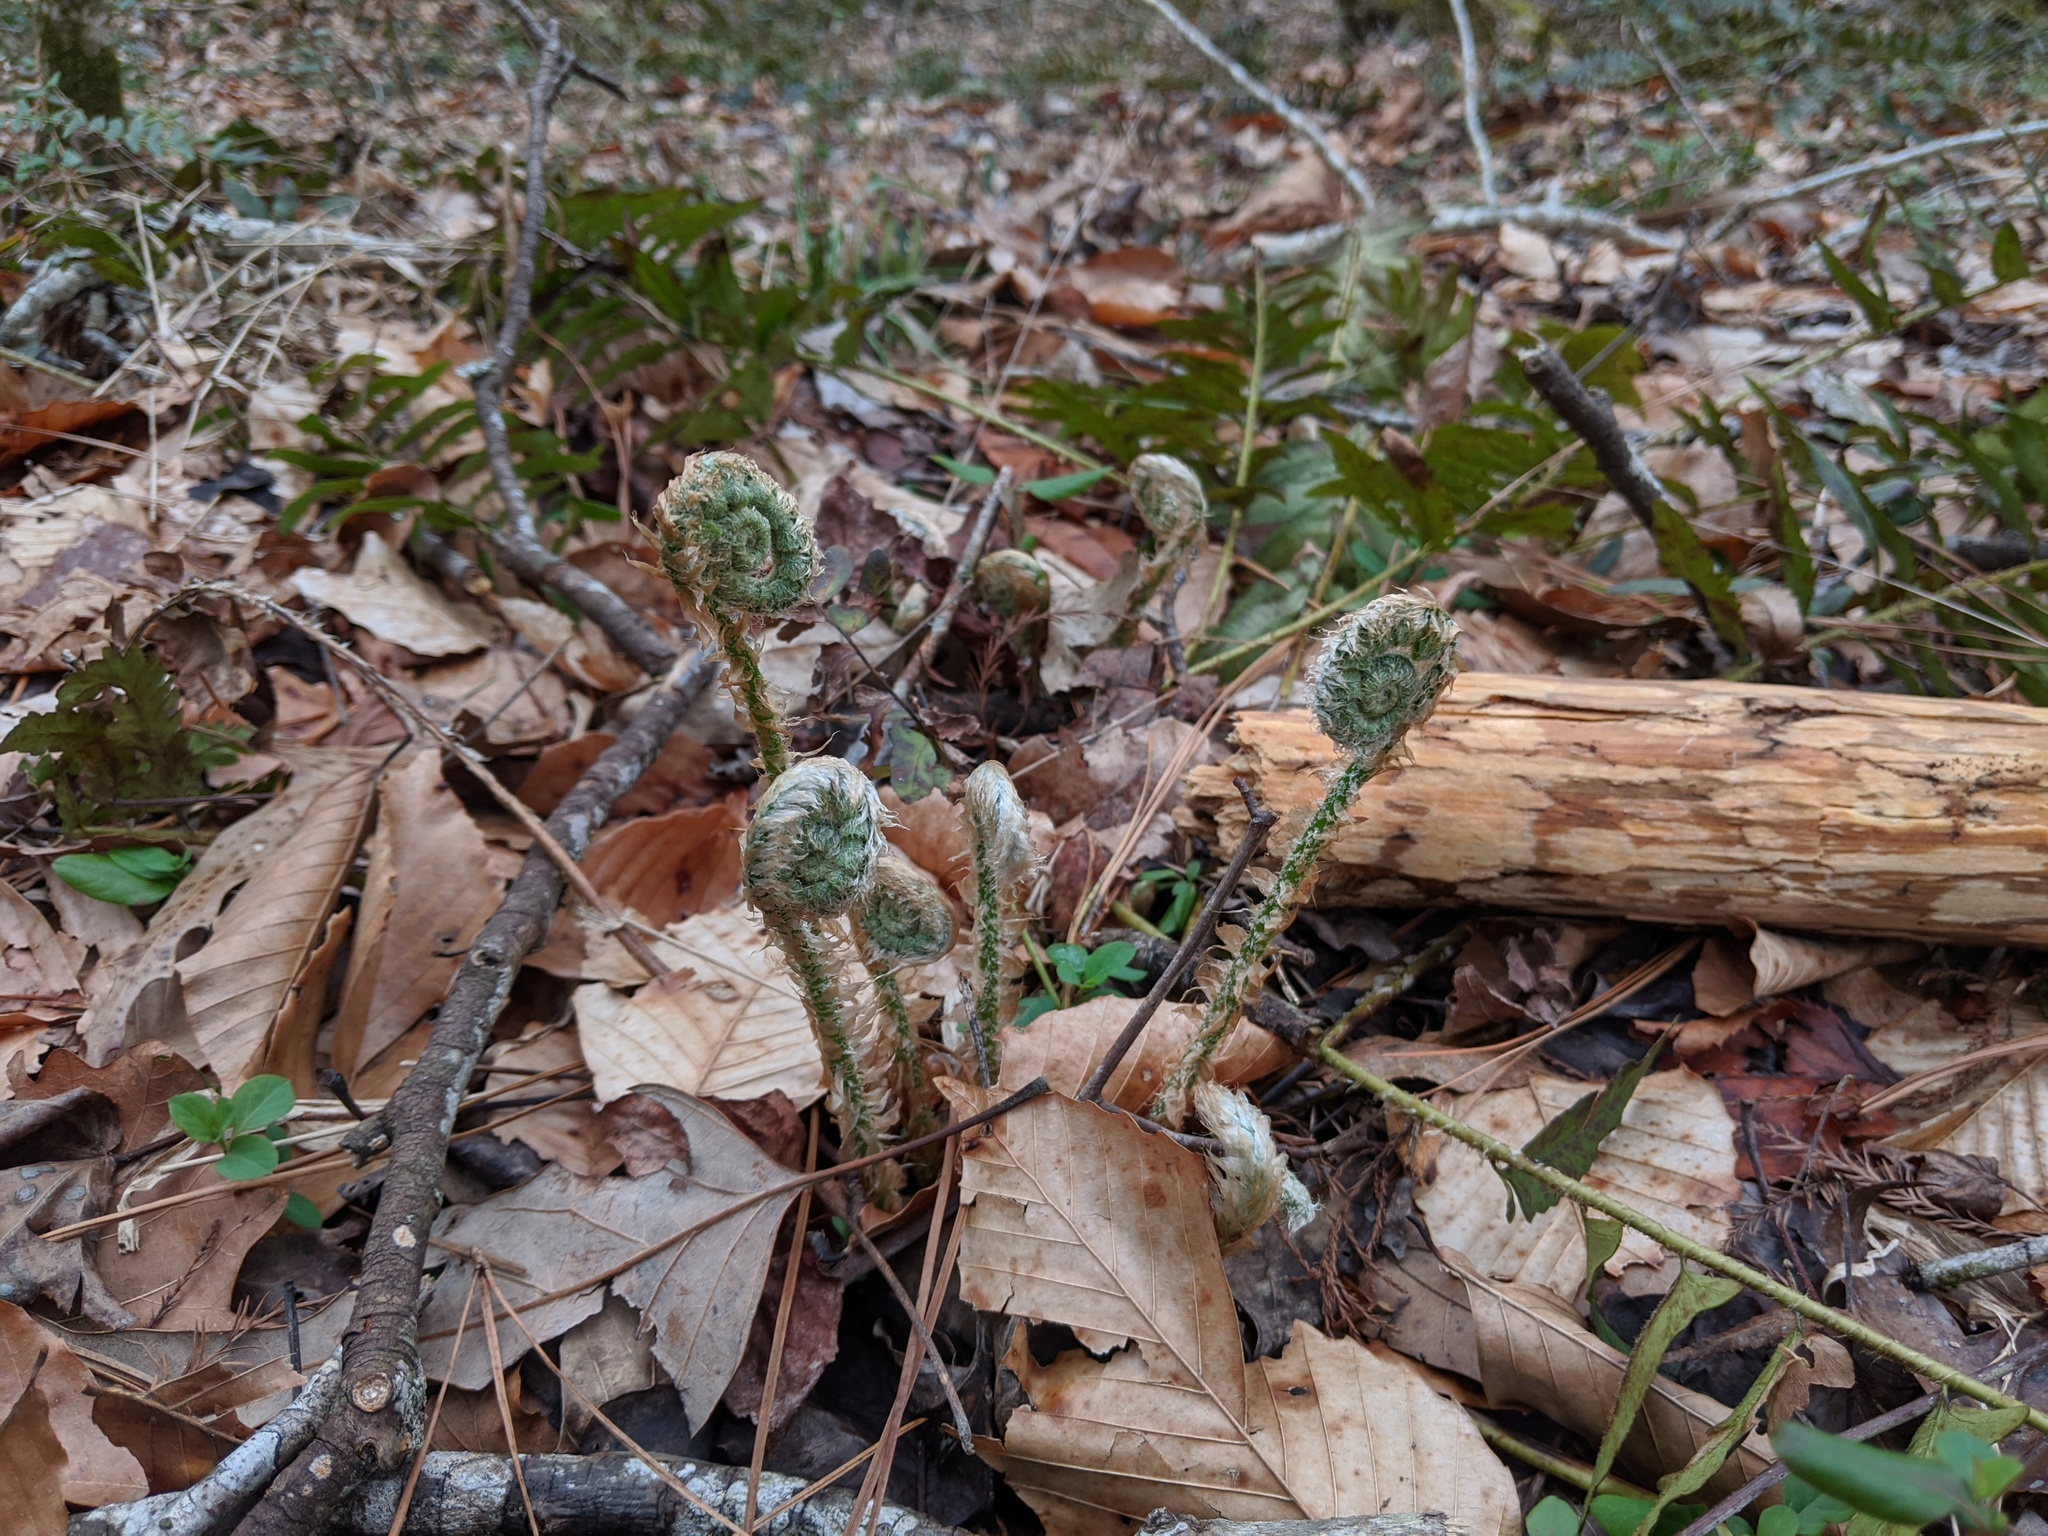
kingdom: Plantae
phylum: Tracheophyta
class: Polypodiopsida
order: Polypodiales
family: Dryopteridaceae
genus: Polystichum
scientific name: Polystichum acrostichoides
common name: Christmas fern
